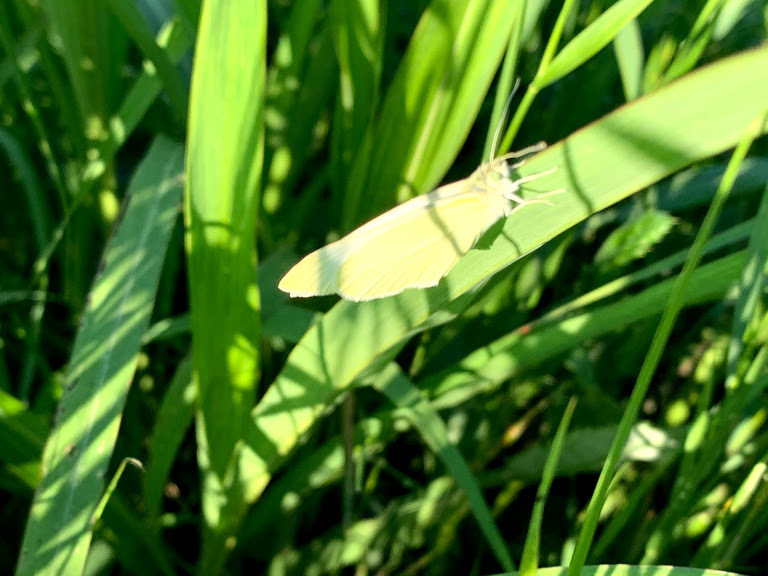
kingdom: Animalia
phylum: Arthropoda
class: Insecta
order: Lepidoptera
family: Pieridae
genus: Pieris
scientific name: Pieris rapae
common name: Small white
